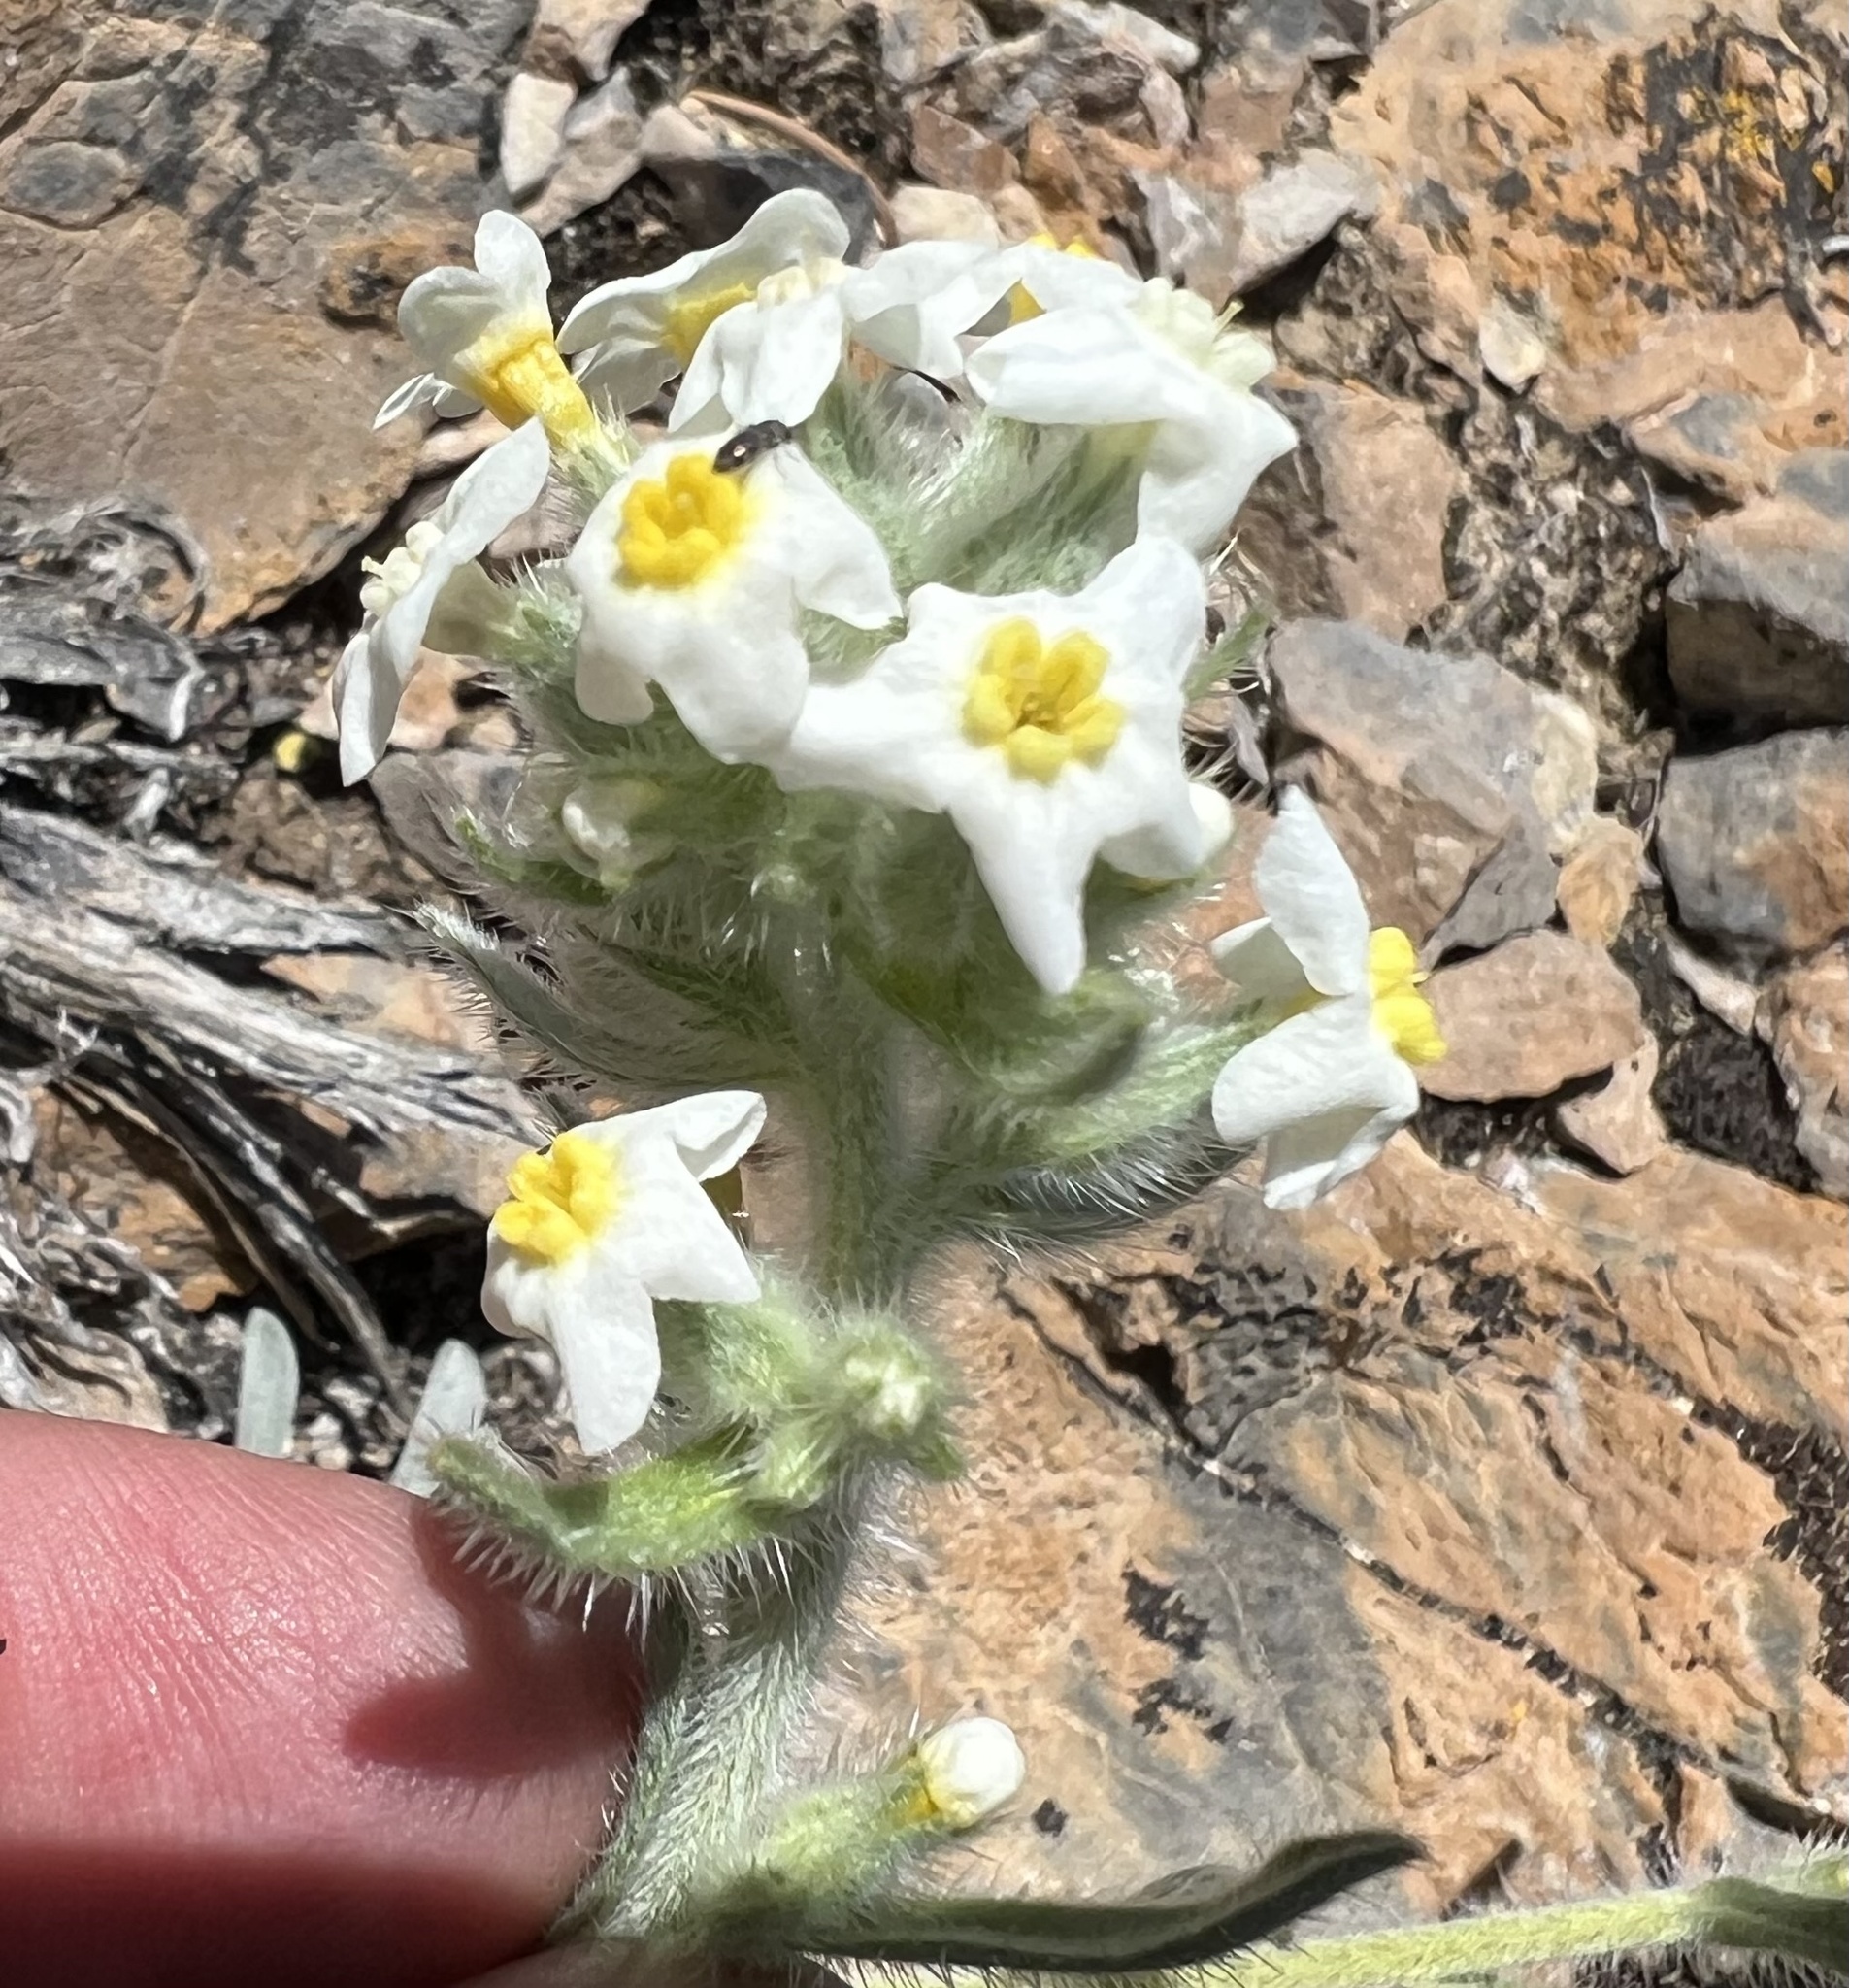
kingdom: Plantae
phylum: Tracheophyta
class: Magnoliopsida
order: Boraginales
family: Boraginaceae
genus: Oreocarya
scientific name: Oreocarya flavoculata
